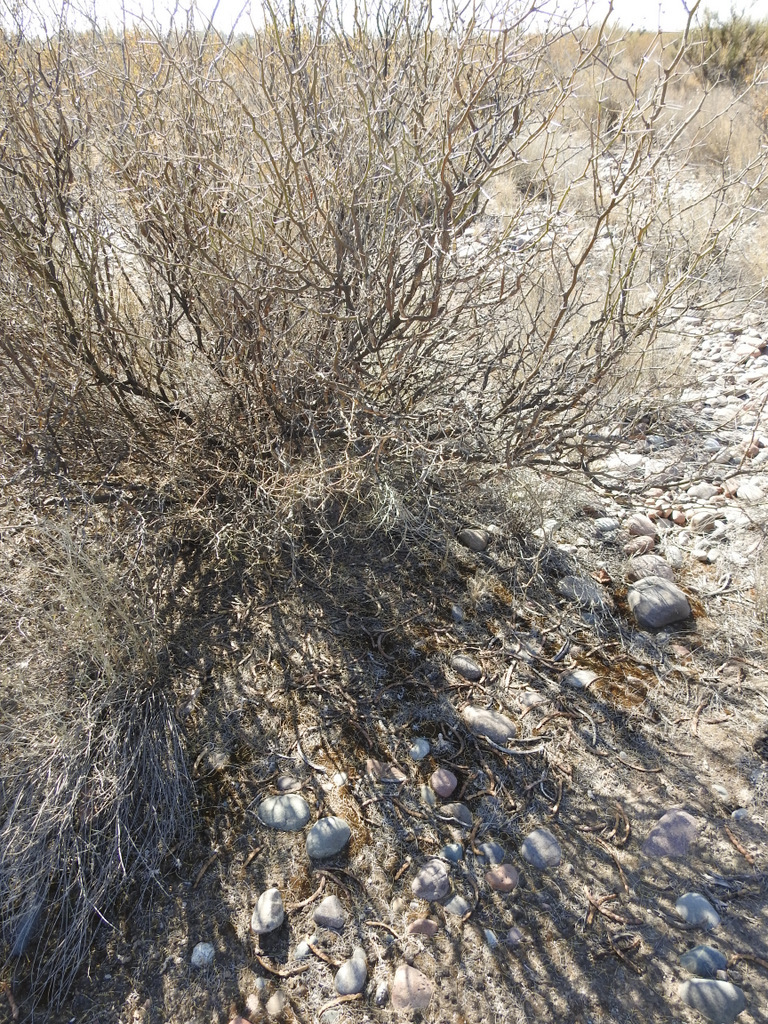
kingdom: Plantae
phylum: Tracheophyta
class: Magnoliopsida
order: Fabales
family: Fabaceae
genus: Prosopis
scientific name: Prosopis flexuosa
